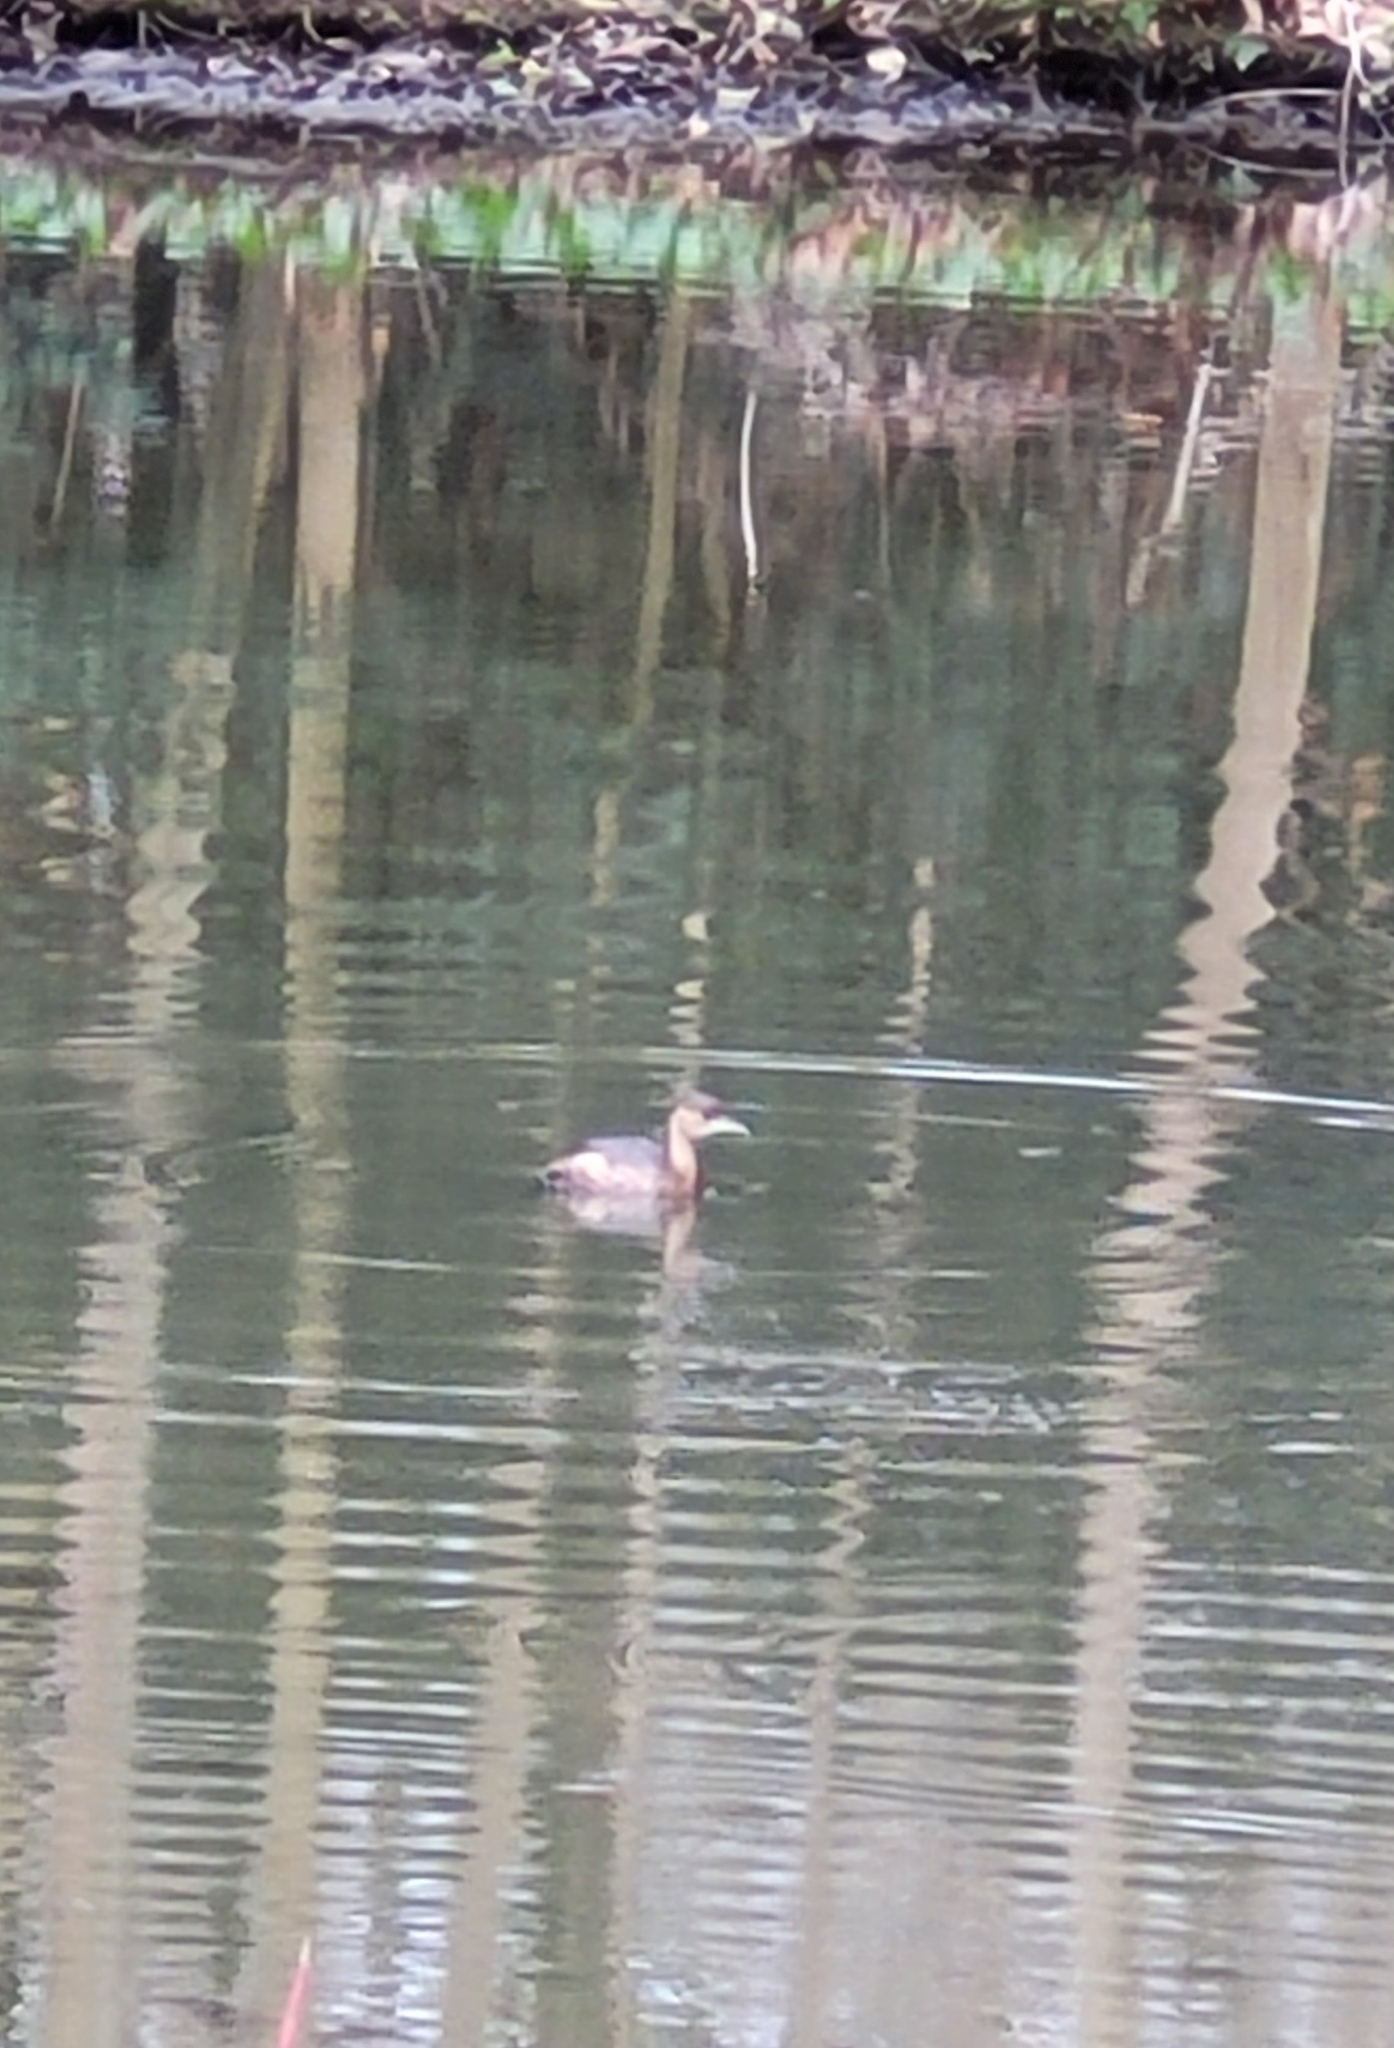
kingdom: Animalia
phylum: Chordata
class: Aves
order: Podicipediformes
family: Podicipedidae
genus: Tachybaptus
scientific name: Tachybaptus ruficollis
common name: Little grebe
